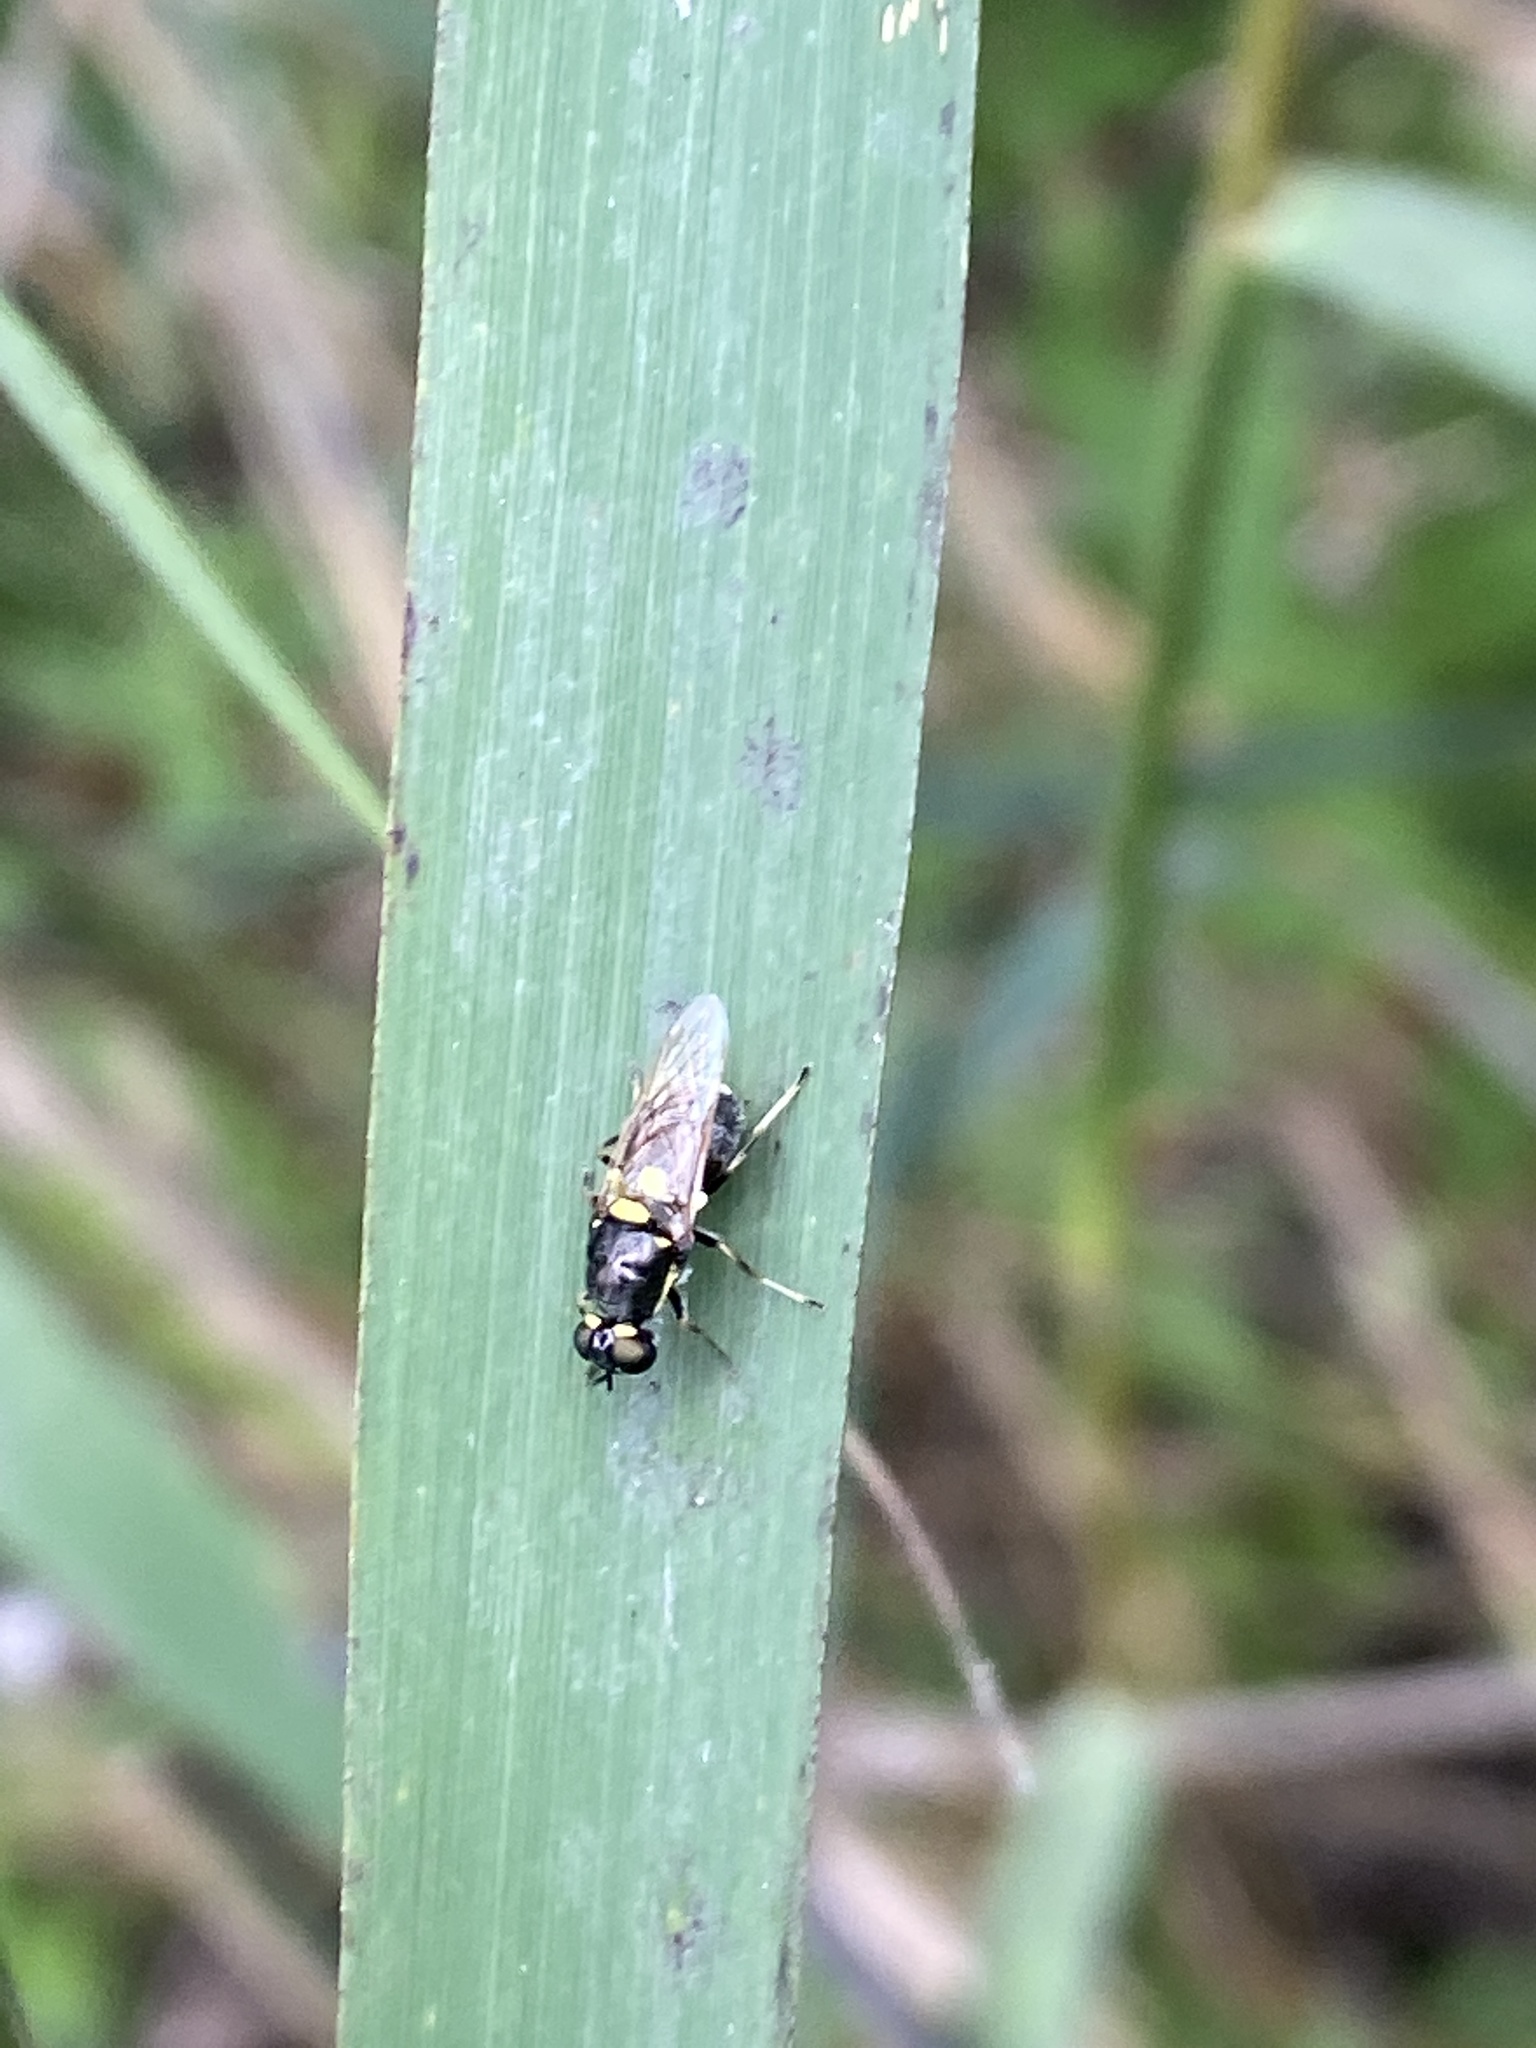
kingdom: Animalia
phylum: Arthropoda
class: Insecta
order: Diptera
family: Stratiomyidae
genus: Oxycera
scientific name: Oxycera leonina
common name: Twin-spotted major
